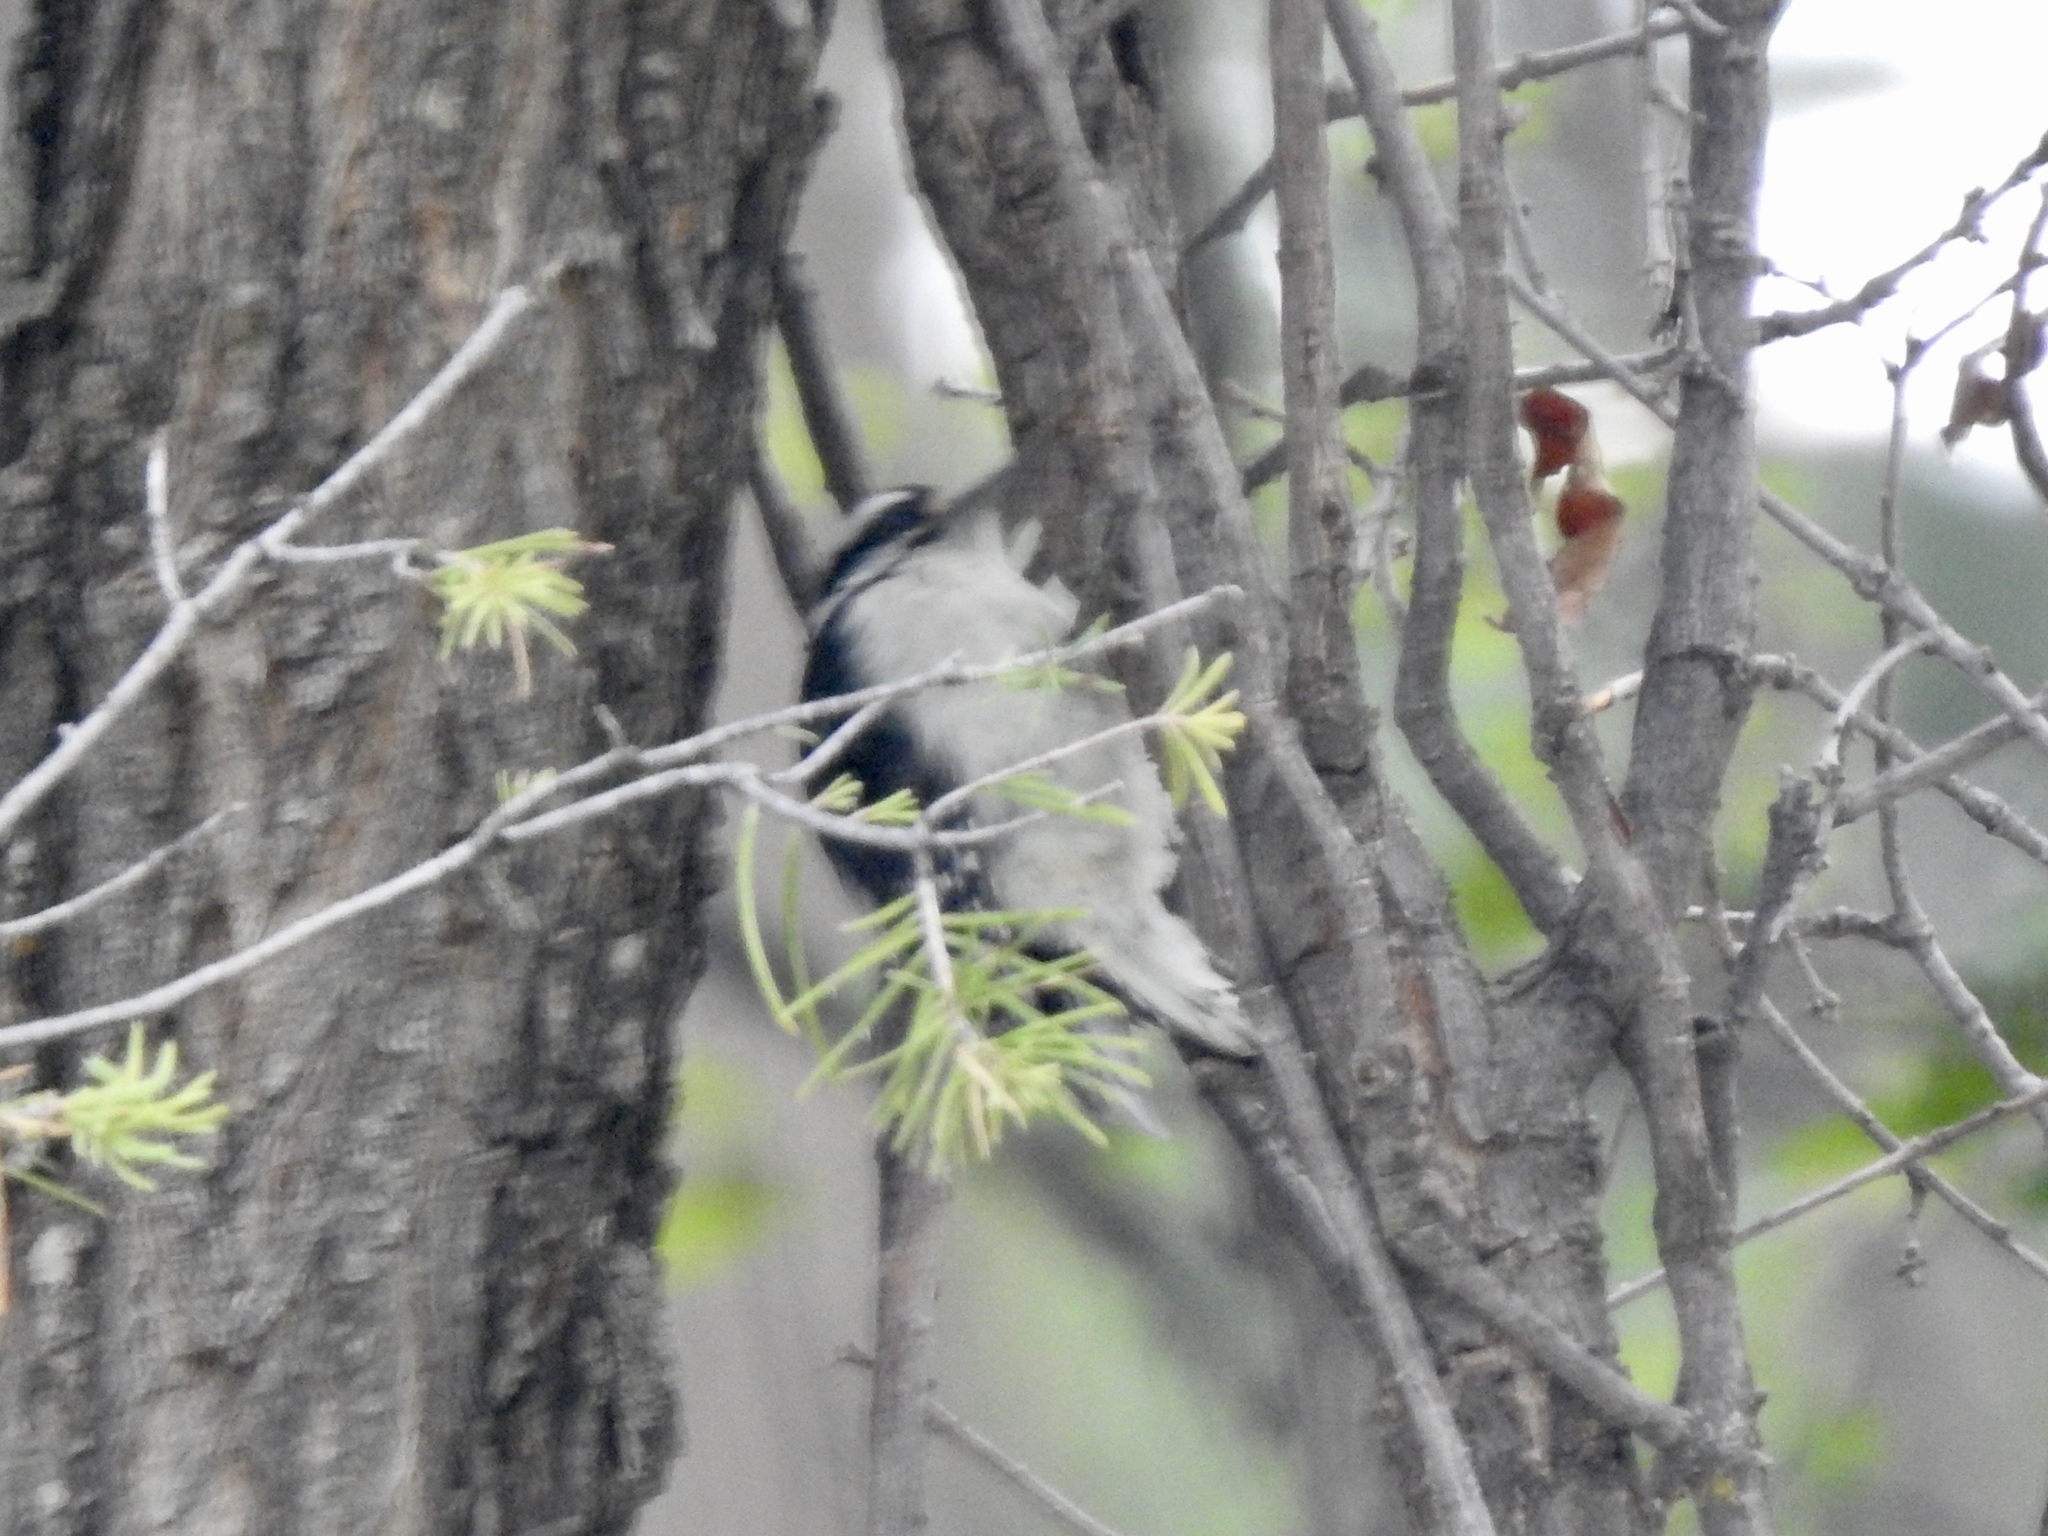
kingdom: Animalia
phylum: Chordata
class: Aves
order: Piciformes
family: Picidae
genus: Dryobates
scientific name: Dryobates pubescens
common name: Downy woodpecker
